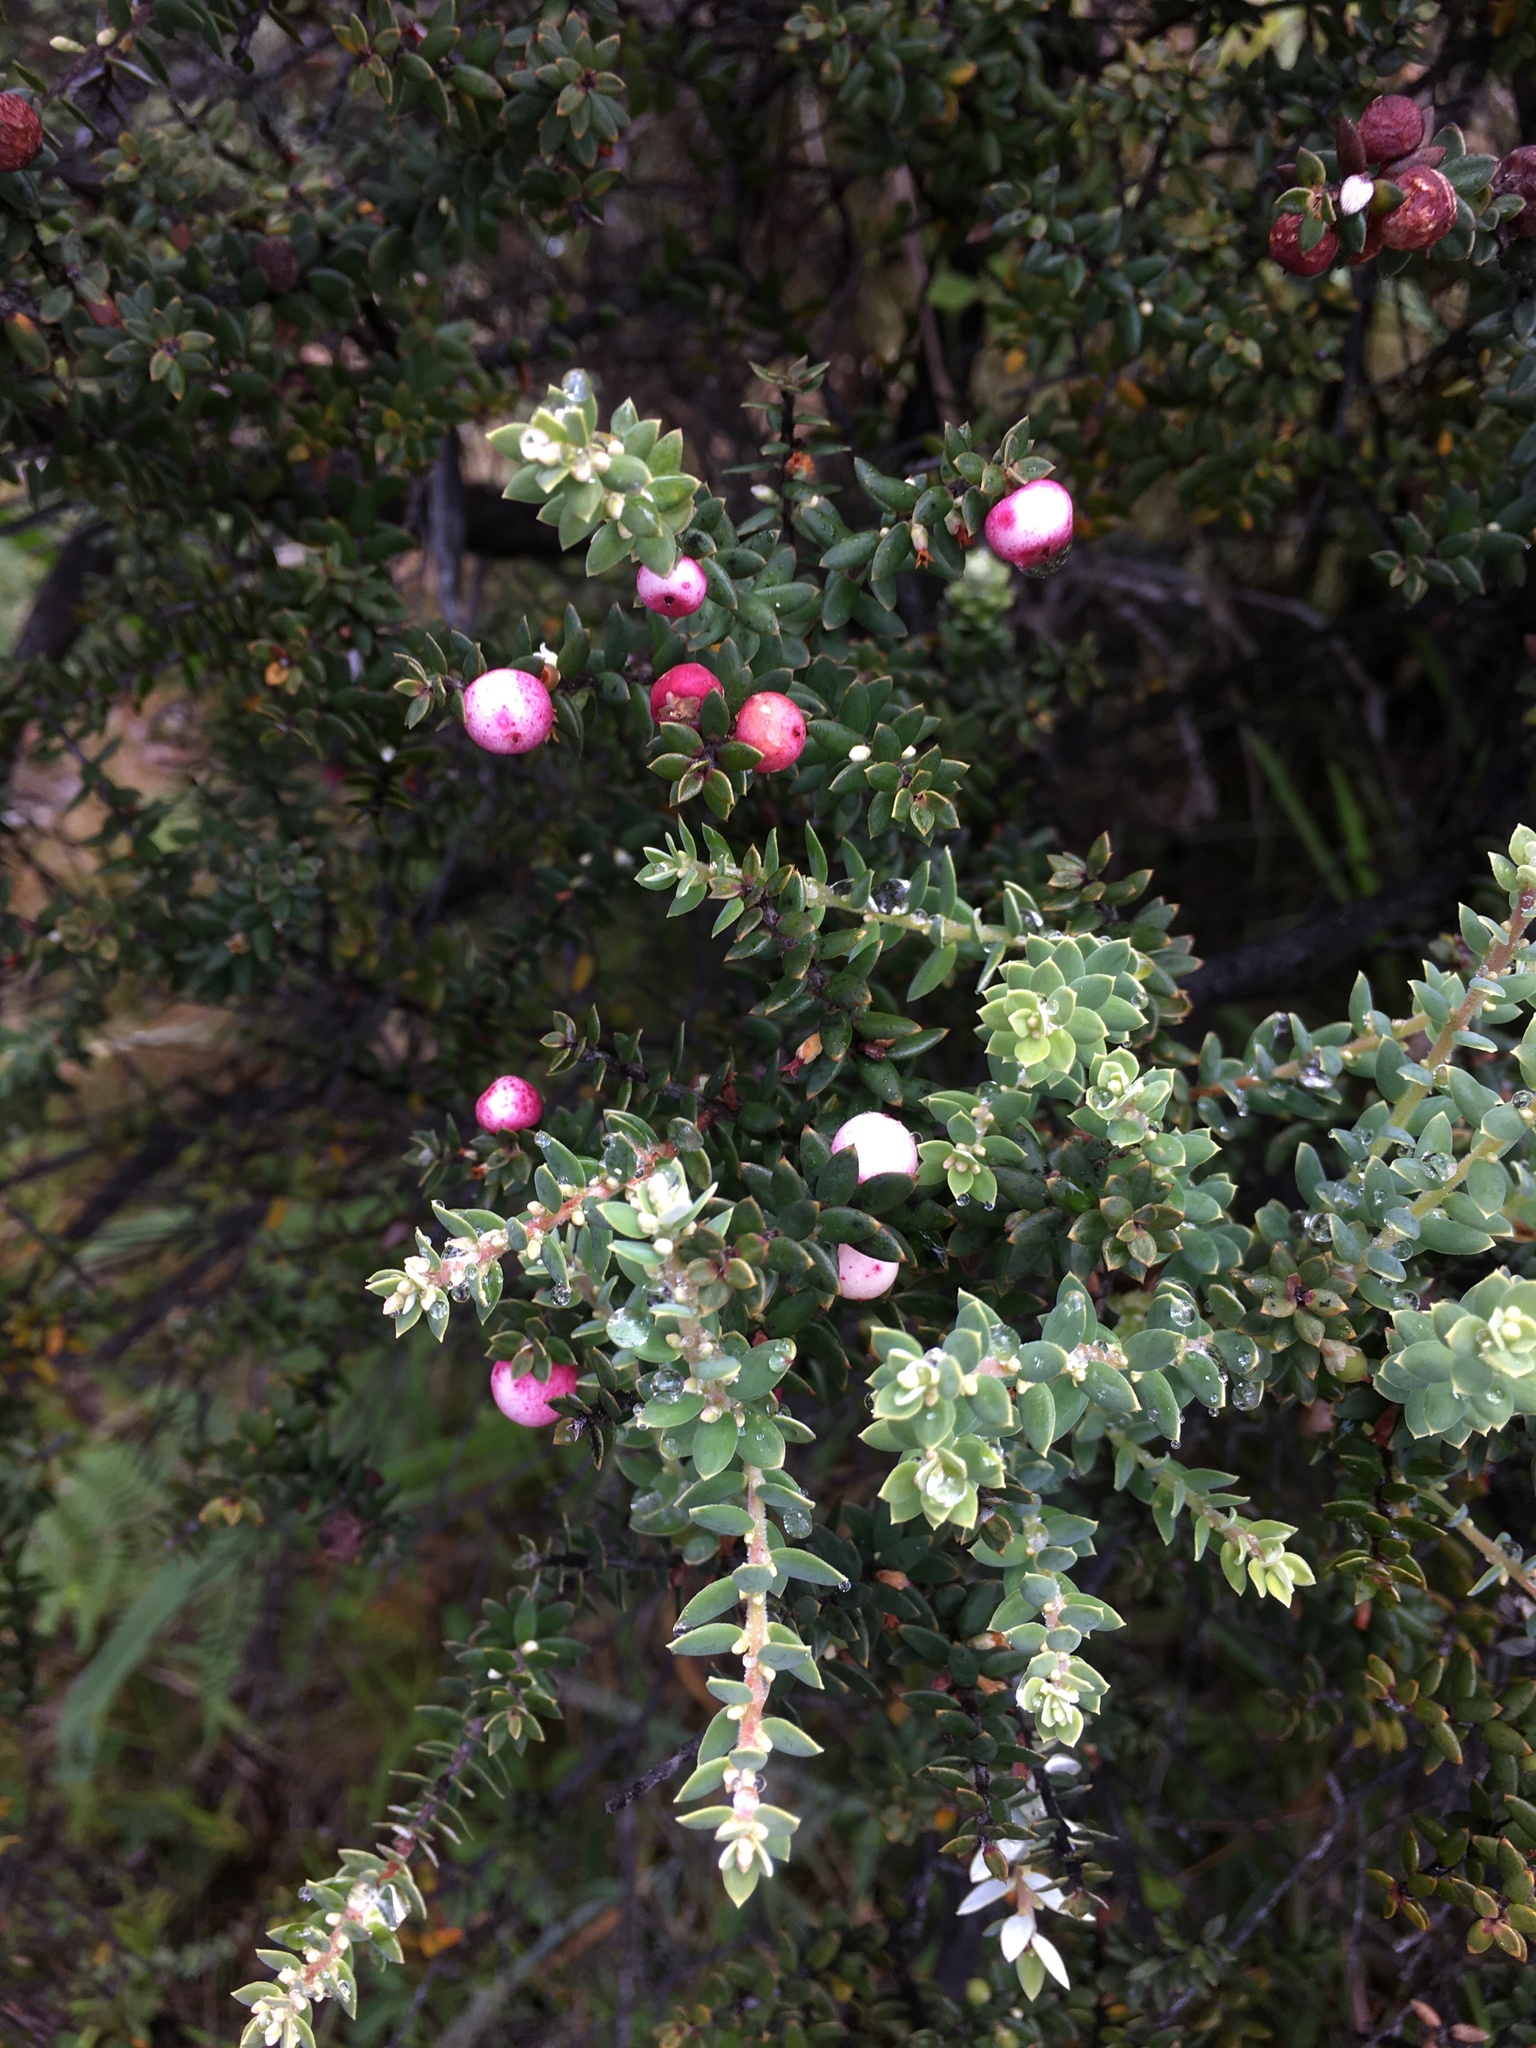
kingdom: Plantae
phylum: Tracheophyta
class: Magnoliopsida
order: Ericales
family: Ericaceae
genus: Leptecophylla
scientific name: Leptecophylla tameiameiae
